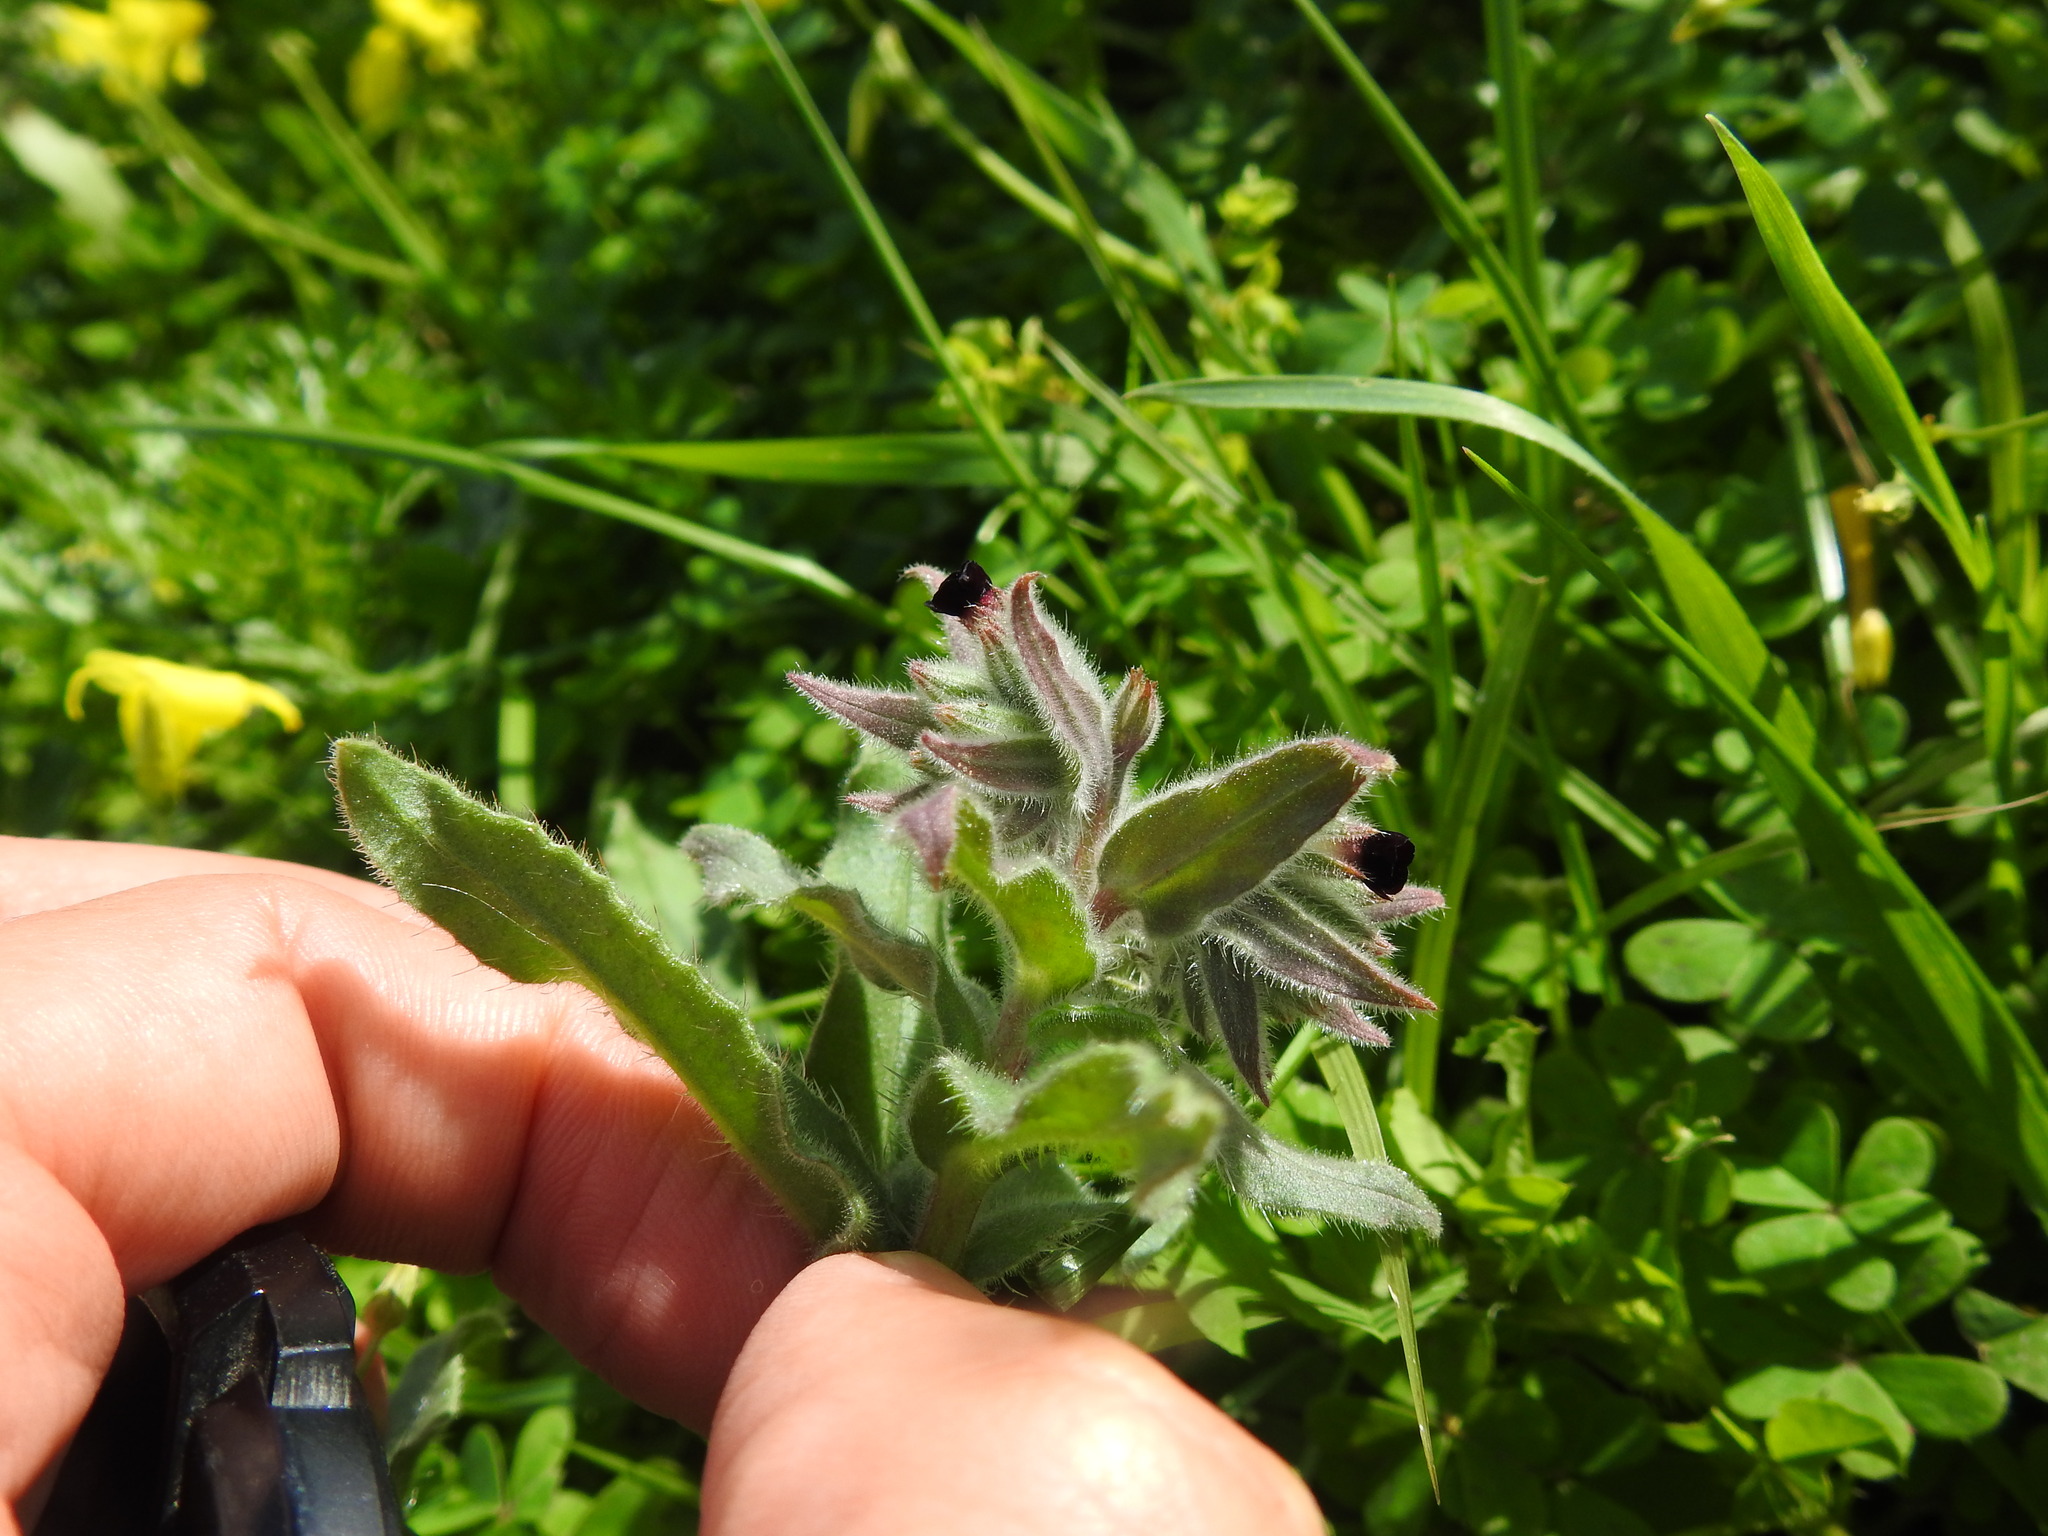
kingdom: Plantae
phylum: Tracheophyta
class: Magnoliopsida
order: Boraginales
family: Boraginaceae
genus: Nonea
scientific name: Nonea vesicaria
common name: Red monkswort
